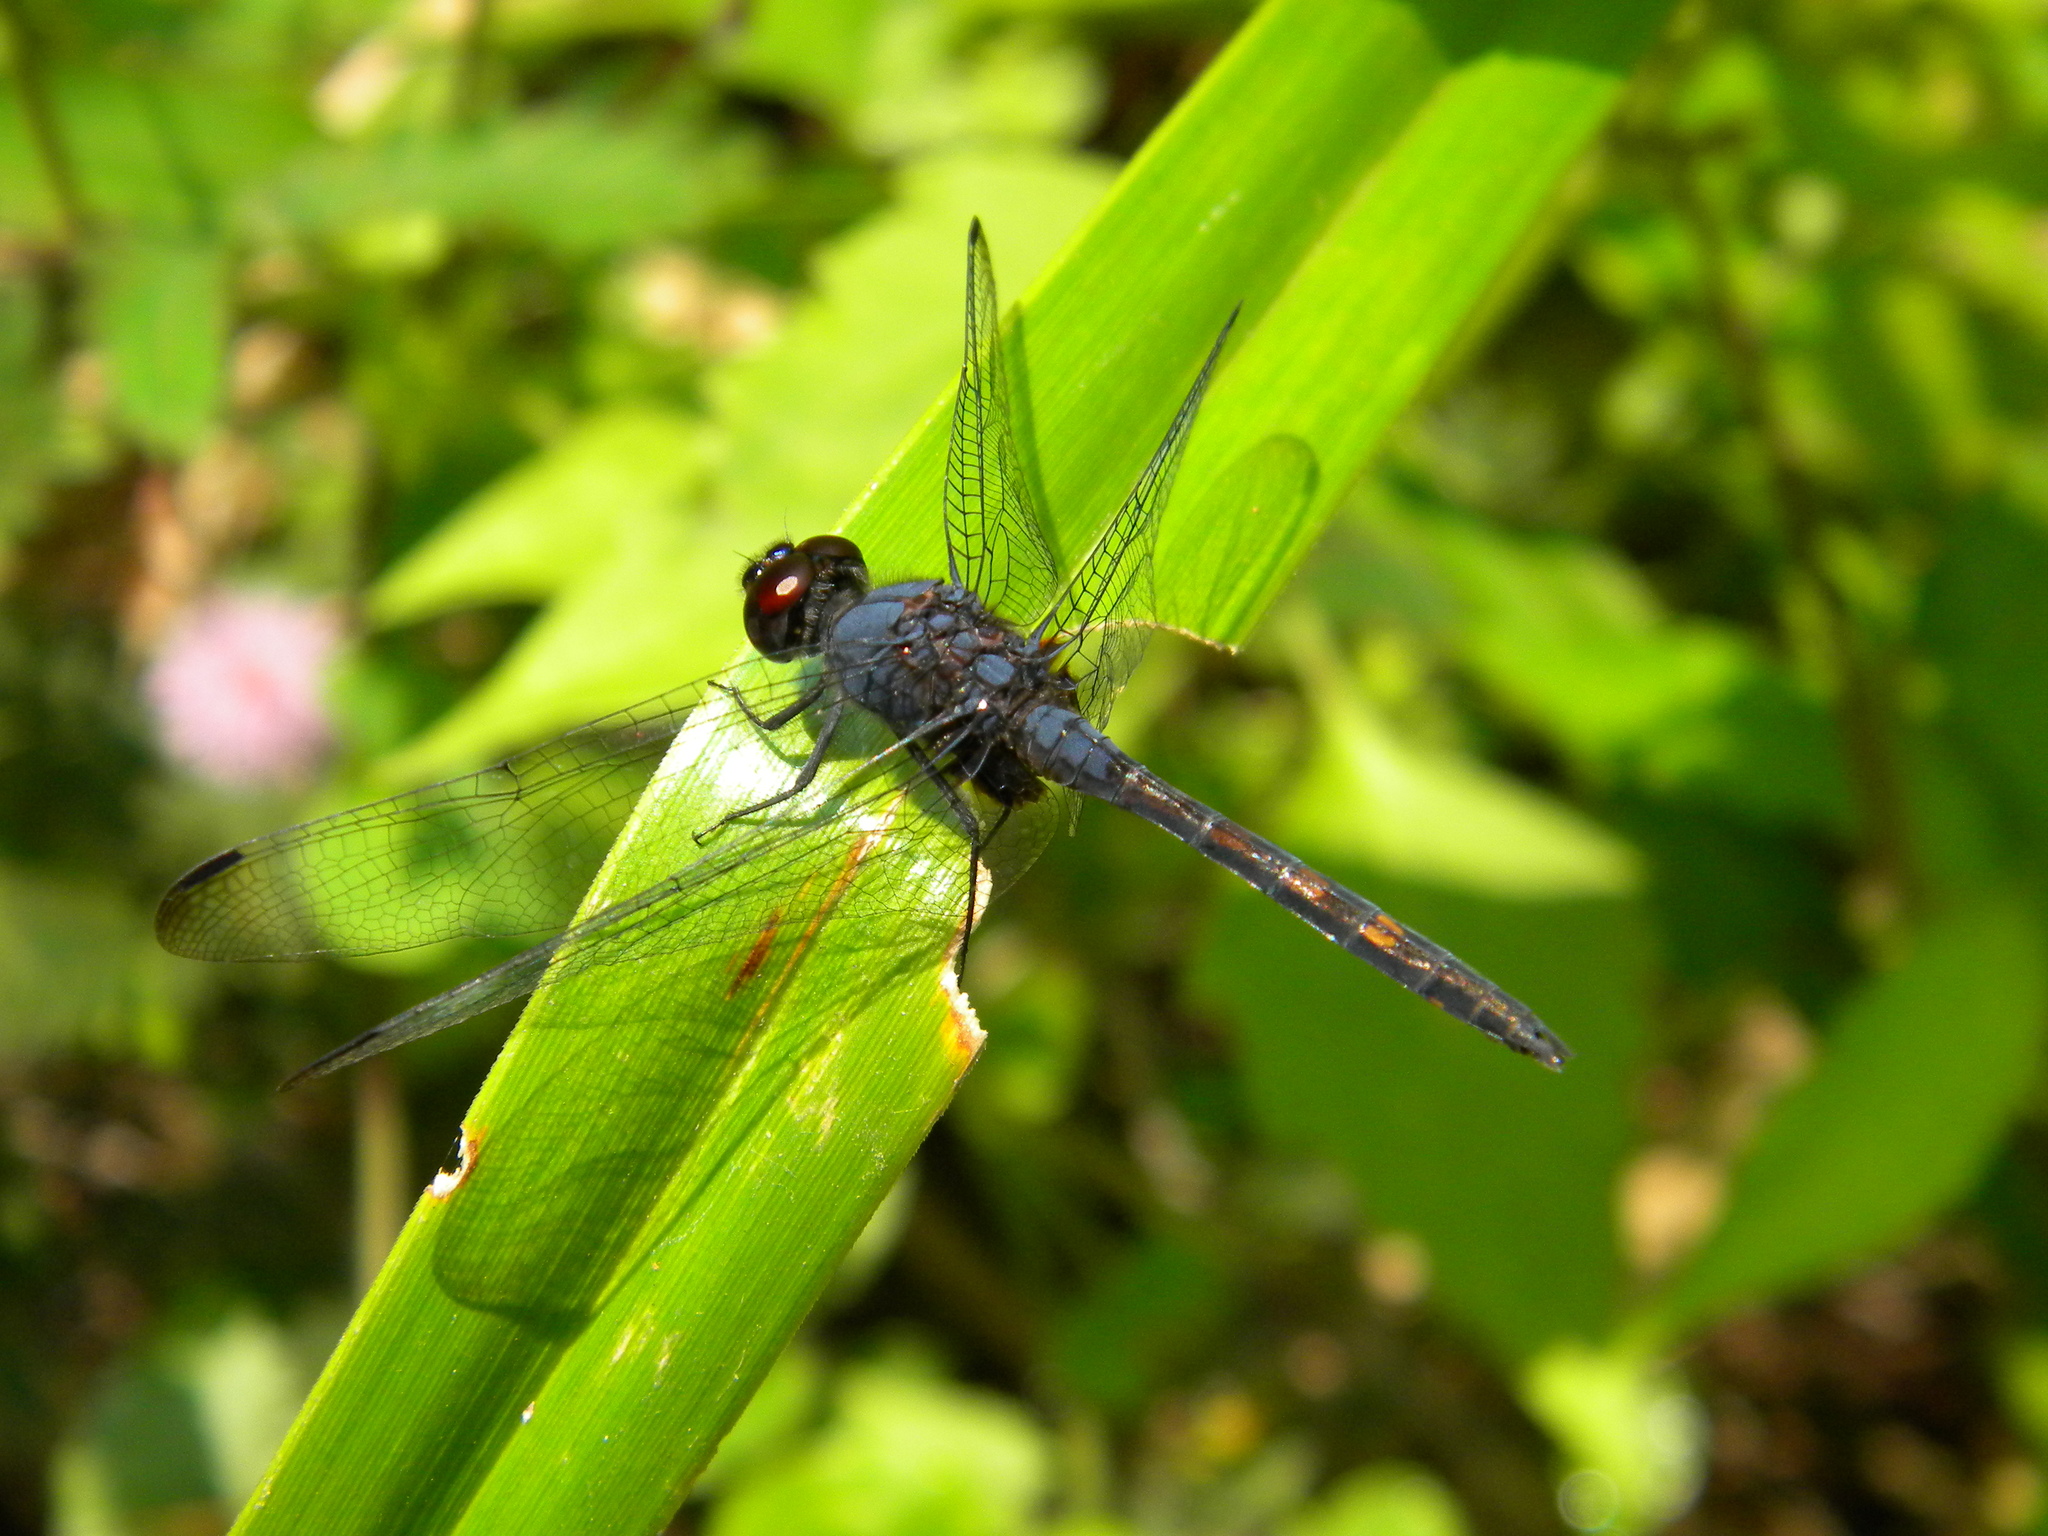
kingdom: Animalia
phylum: Arthropoda
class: Insecta
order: Odonata
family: Libellulidae
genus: Trithemis
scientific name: Trithemis festiva
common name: Indigo dropwing
